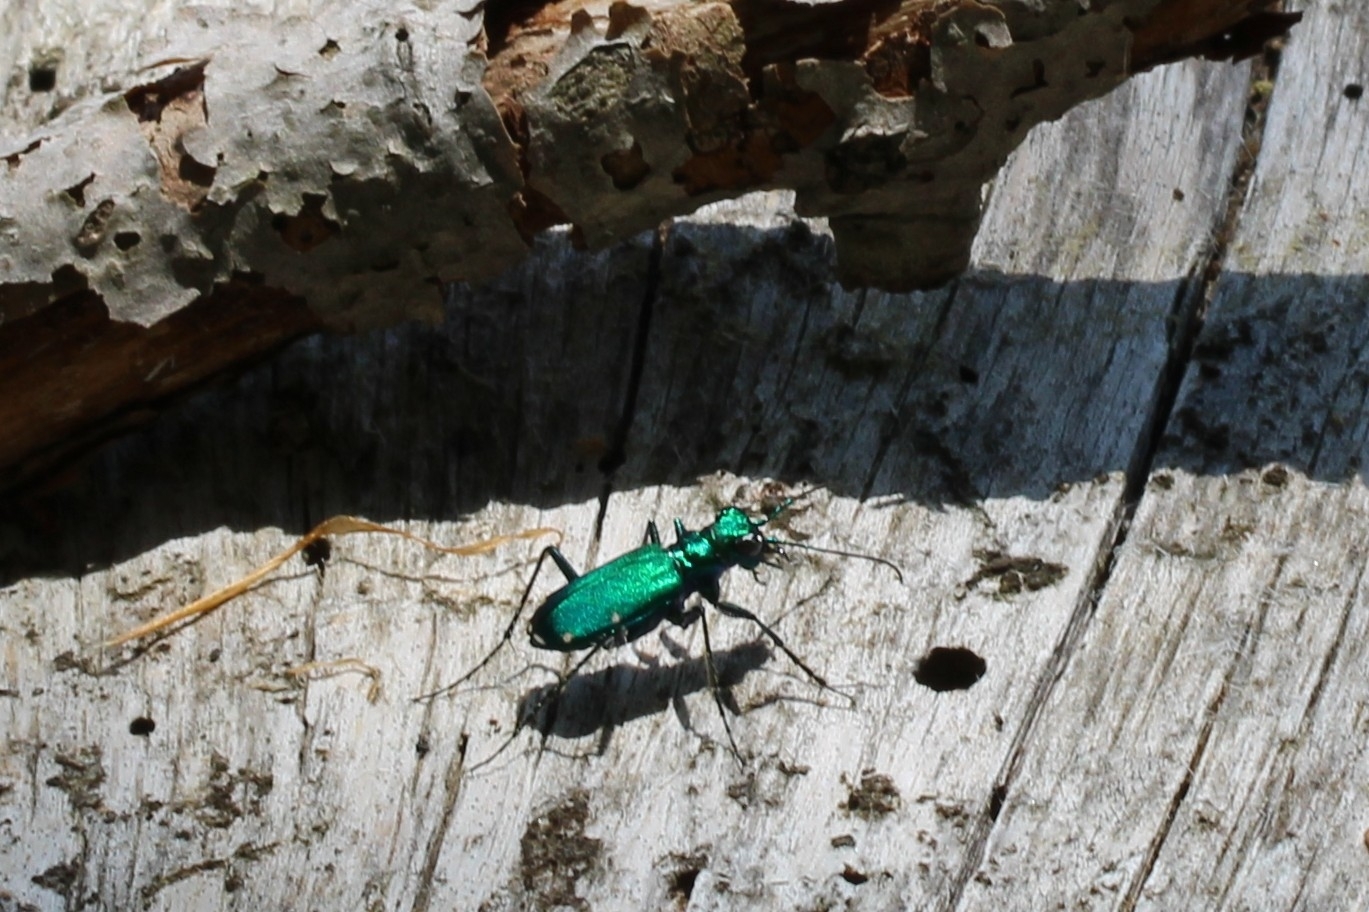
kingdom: Animalia
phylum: Arthropoda
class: Insecta
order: Coleoptera
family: Carabidae
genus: Cicindela
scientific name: Cicindela sexguttata
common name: Six-spotted tiger beetle
